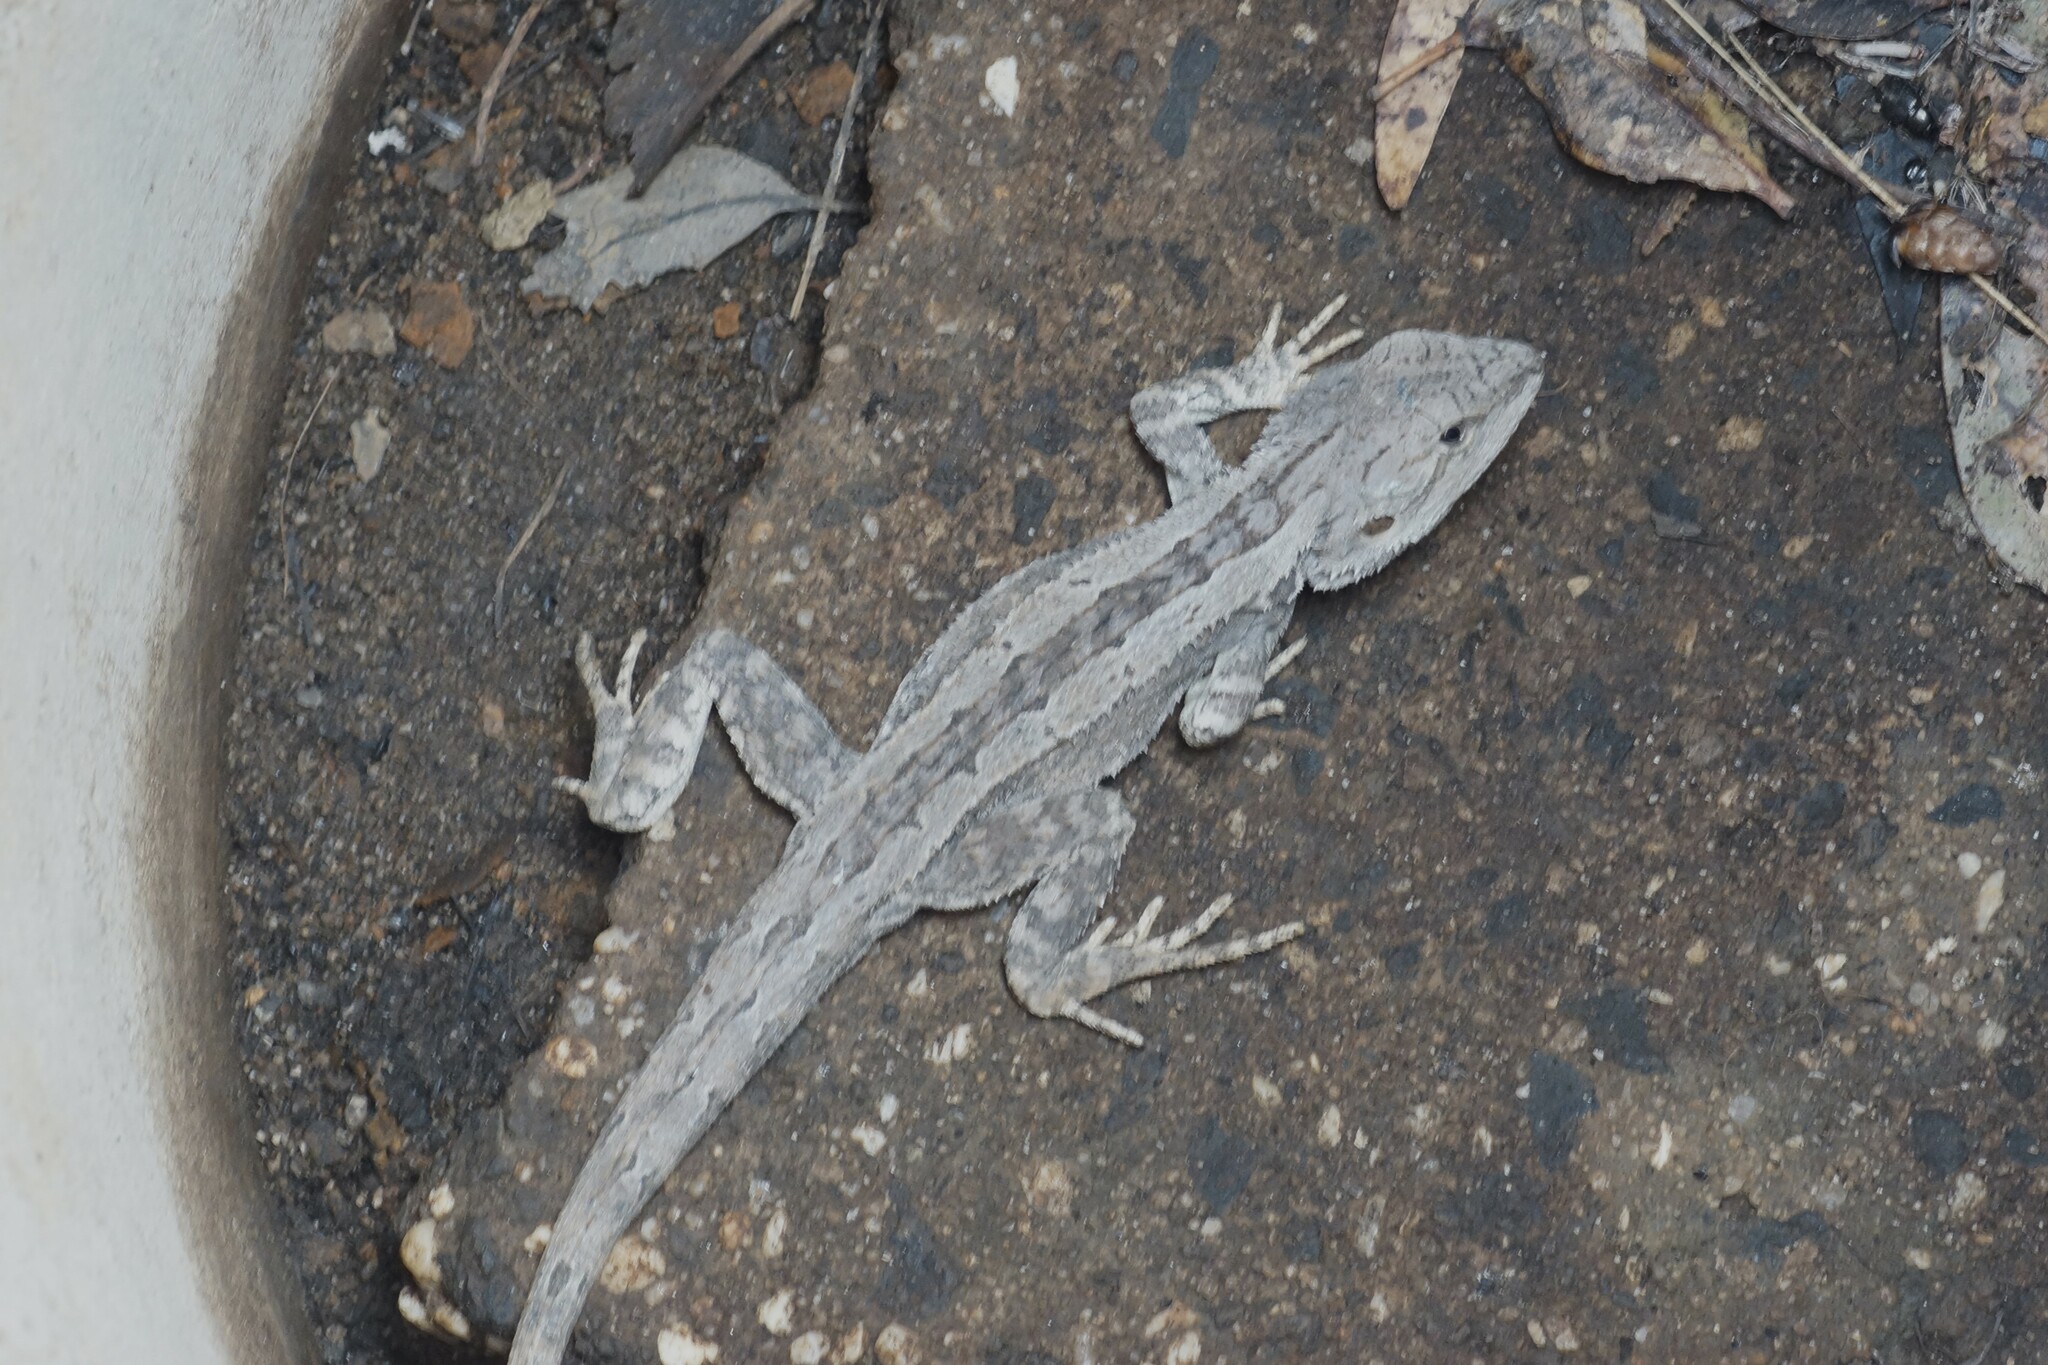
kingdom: Animalia
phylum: Chordata
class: Squamata
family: Agamidae
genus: Amphibolurus
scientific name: Amphibolurus muricatus
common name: Jacky lizard
